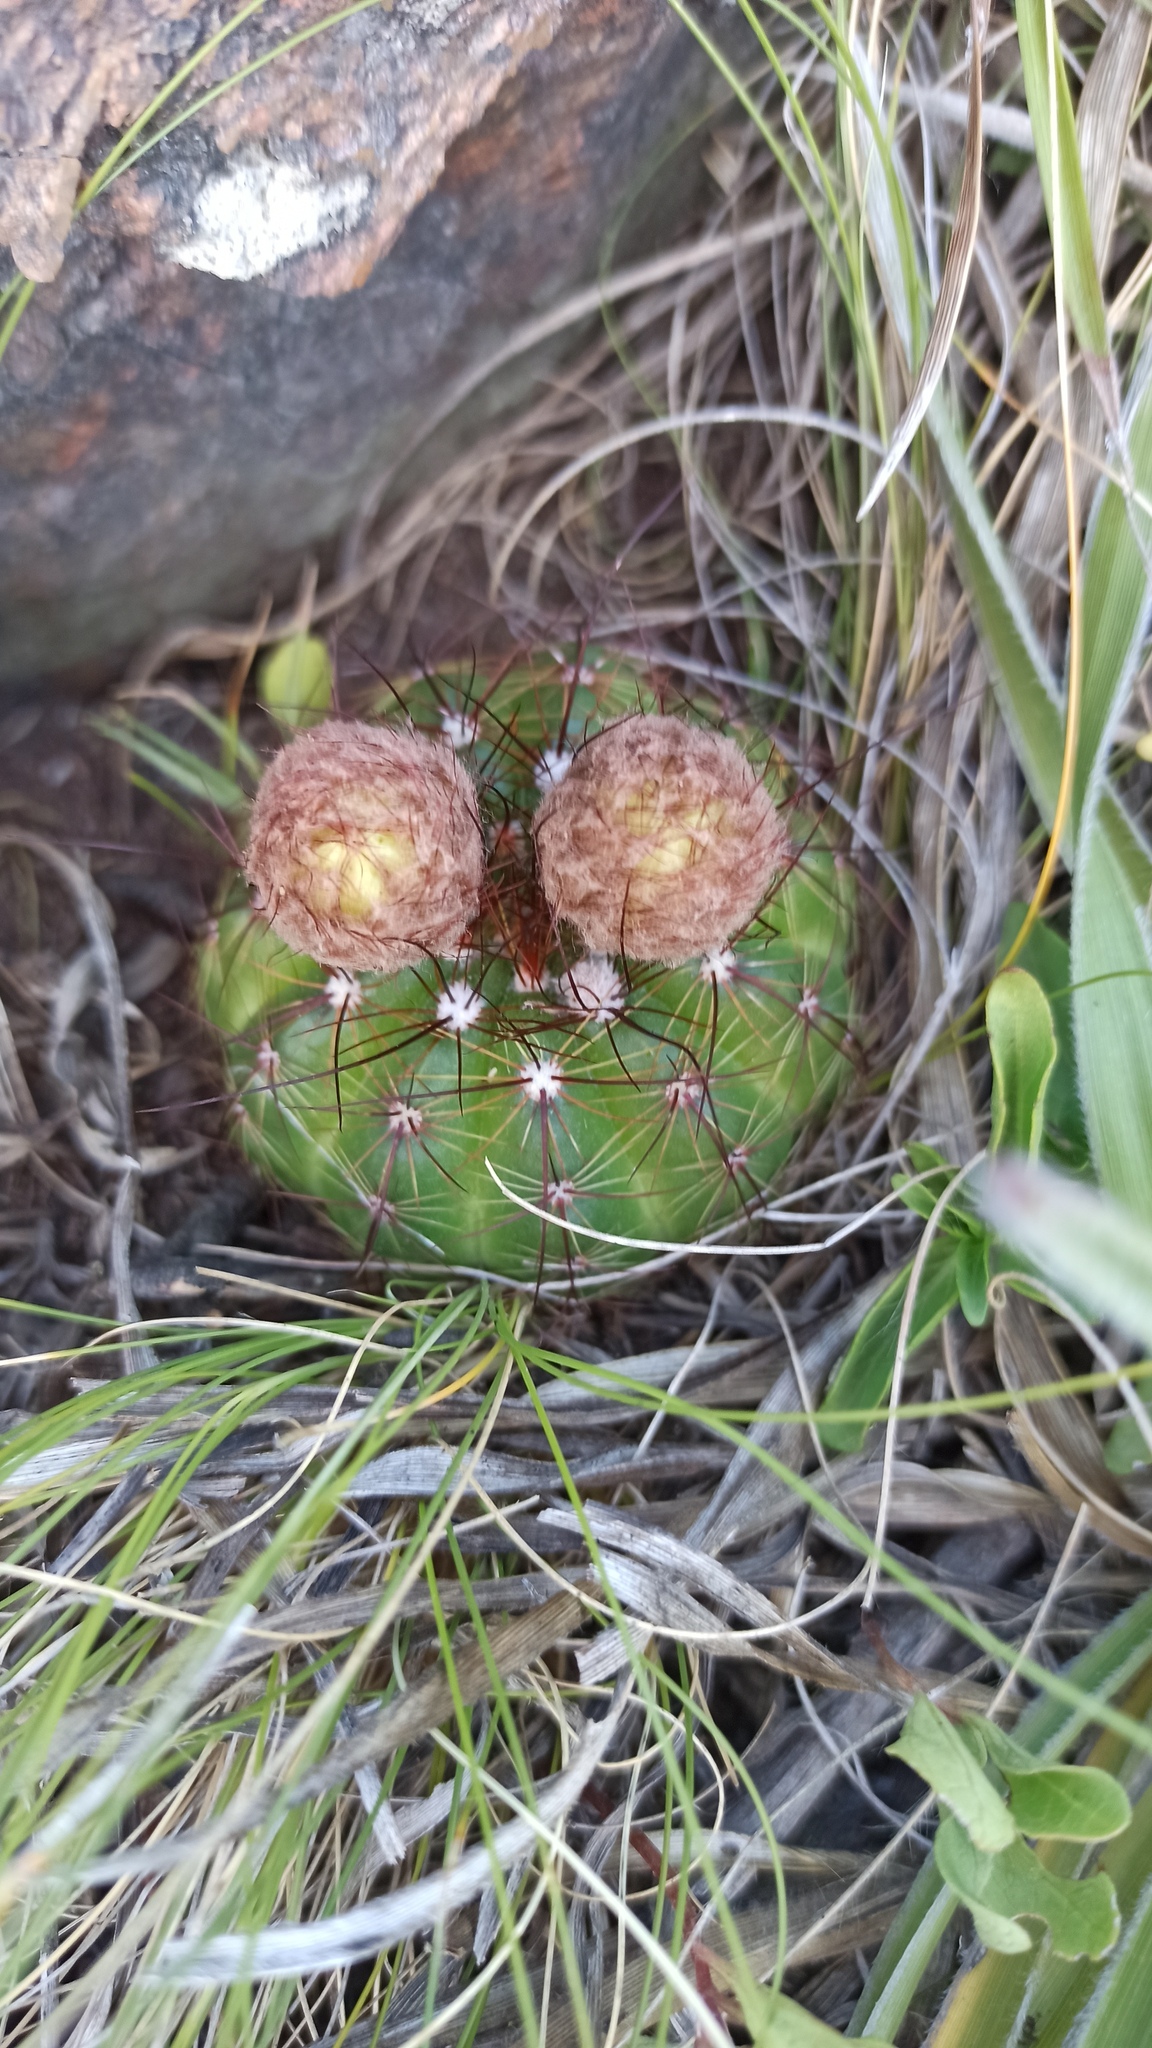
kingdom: Plantae
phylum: Tracheophyta
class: Magnoliopsida
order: Caryophyllales
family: Cactaceae
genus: Parodia
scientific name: Parodia ottonis
